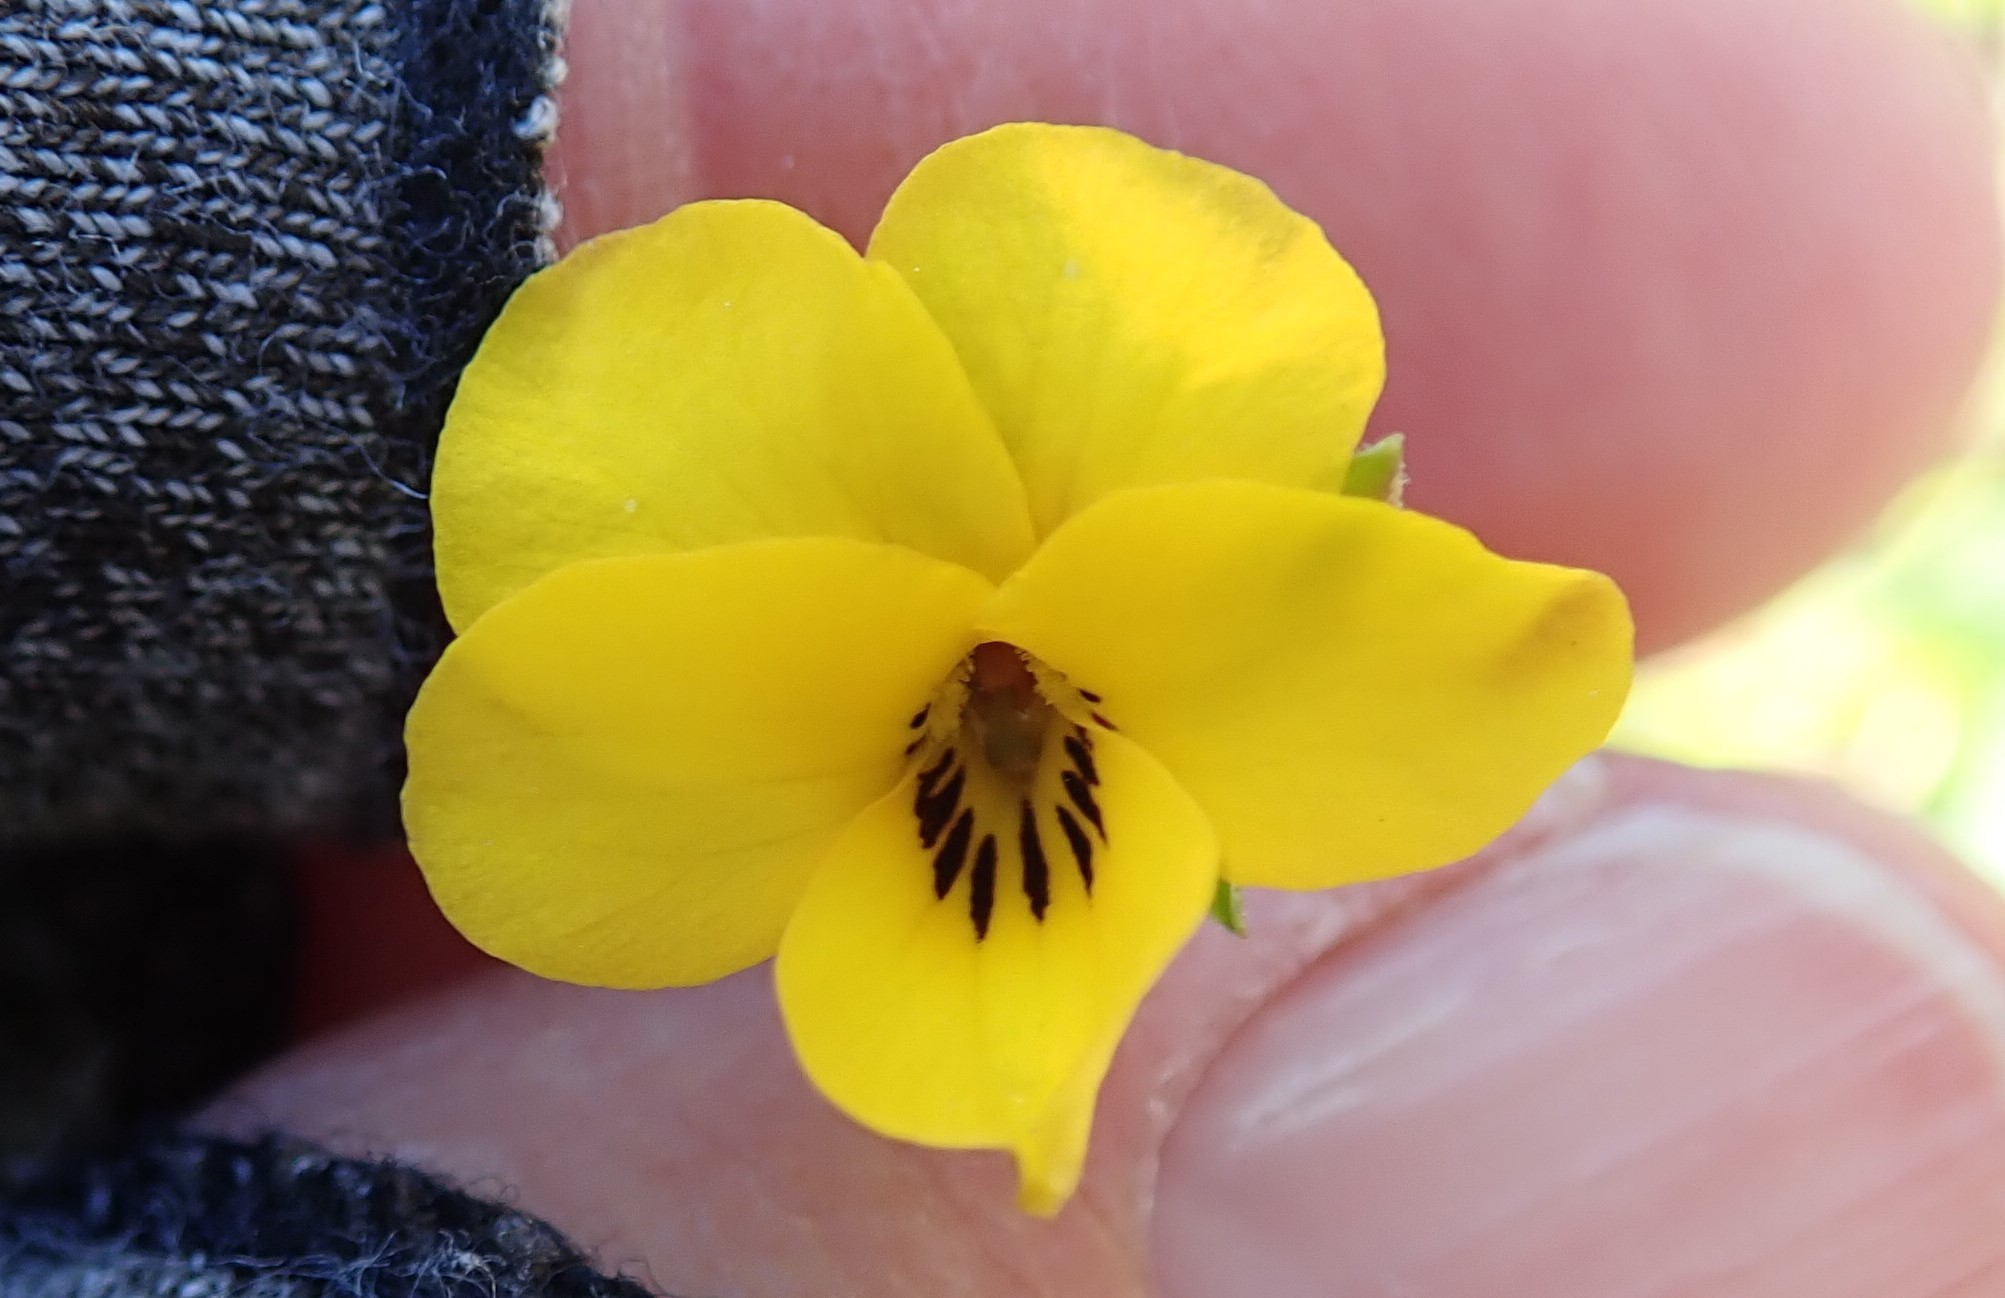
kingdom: Plantae
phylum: Tracheophyta
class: Magnoliopsida
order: Malpighiales
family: Violaceae
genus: Viola
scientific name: Viola pedunculata
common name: California golden violet
